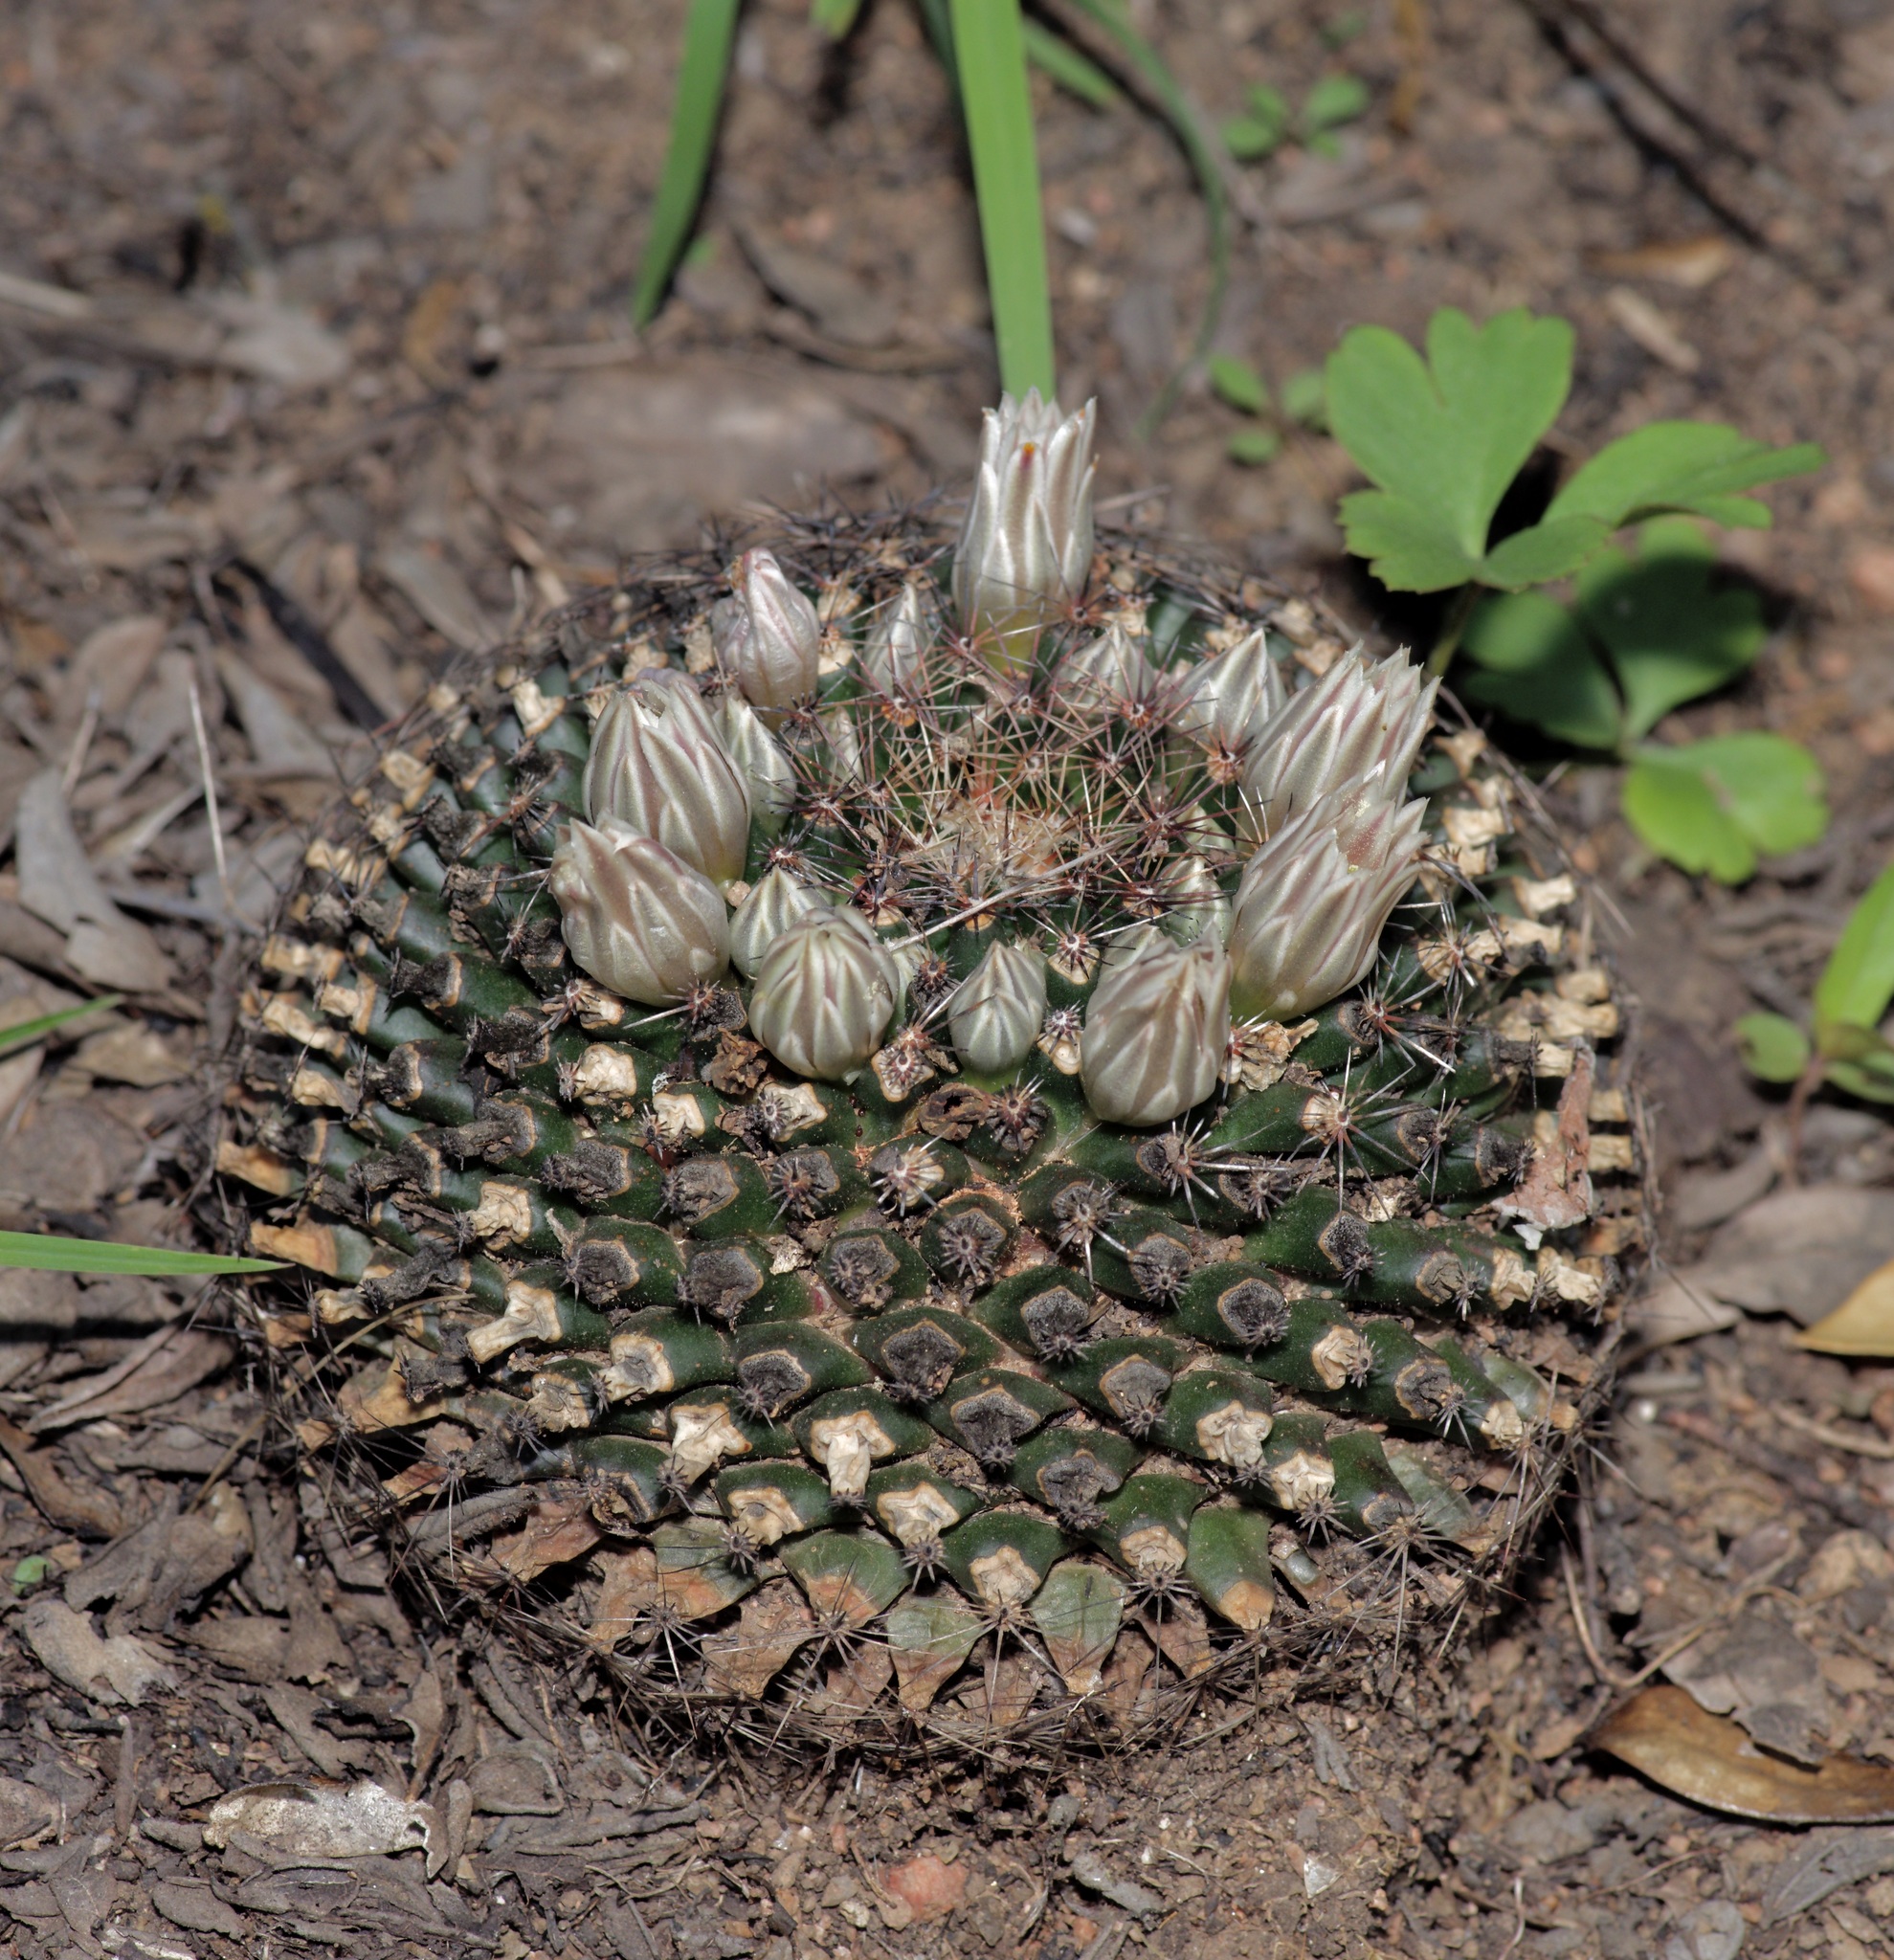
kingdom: Plantae
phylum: Tracheophyta
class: Magnoliopsida
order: Caryophyllales
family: Cactaceae
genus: Mammillaria
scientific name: Mammillaria heyderi
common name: Little nipple cactus
